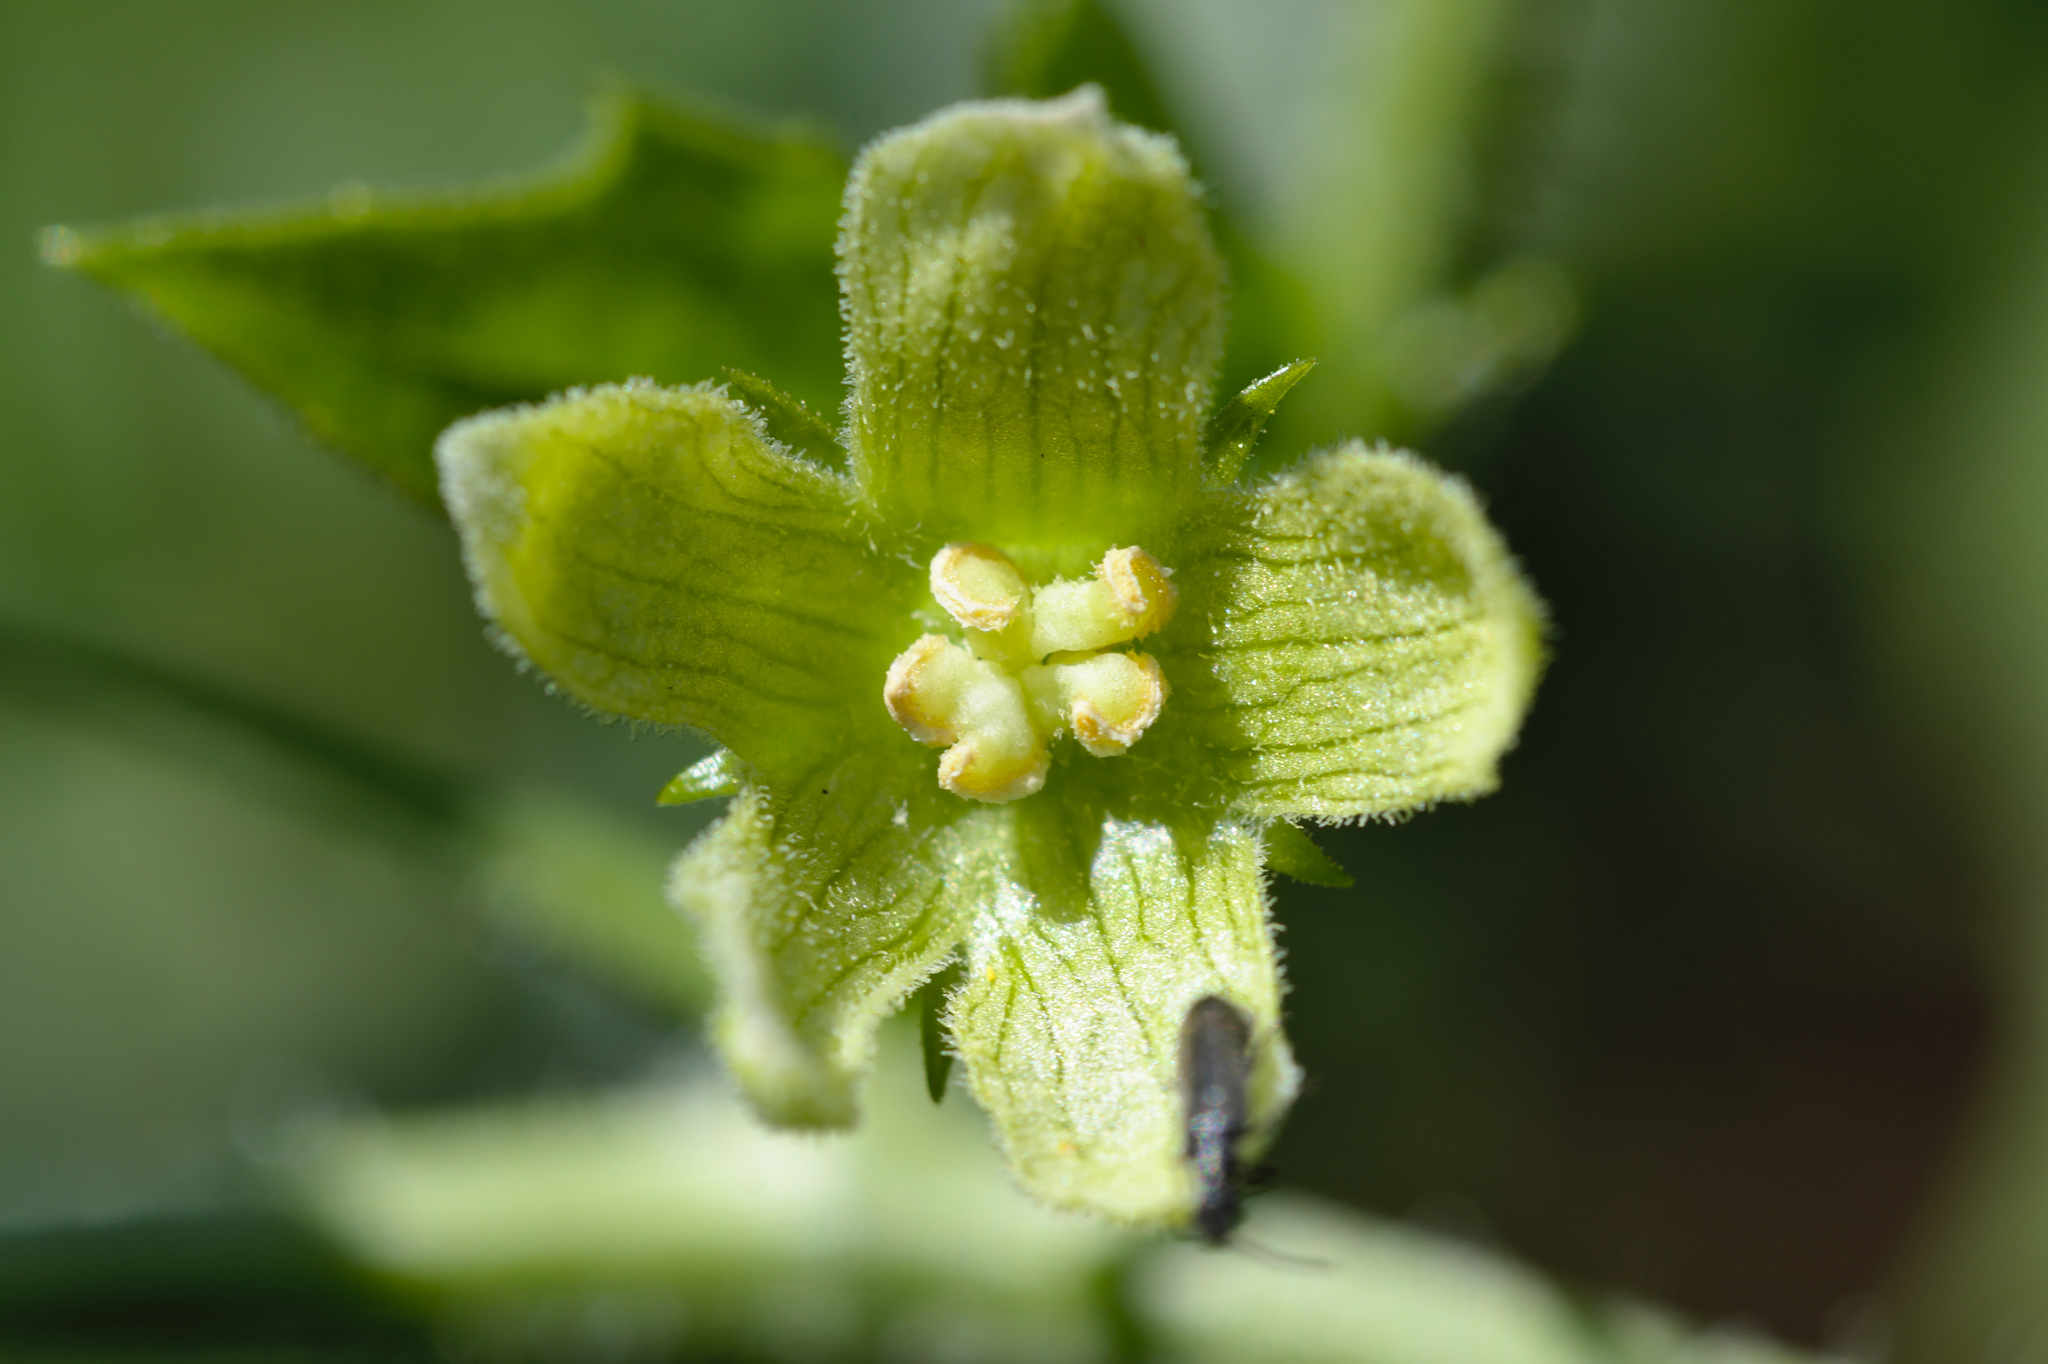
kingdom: Plantae
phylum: Tracheophyta
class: Magnoliopsida
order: Cucurbitales
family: Cucurbitaceae
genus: Bryonia
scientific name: Bryonia dioica
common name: White bryony
